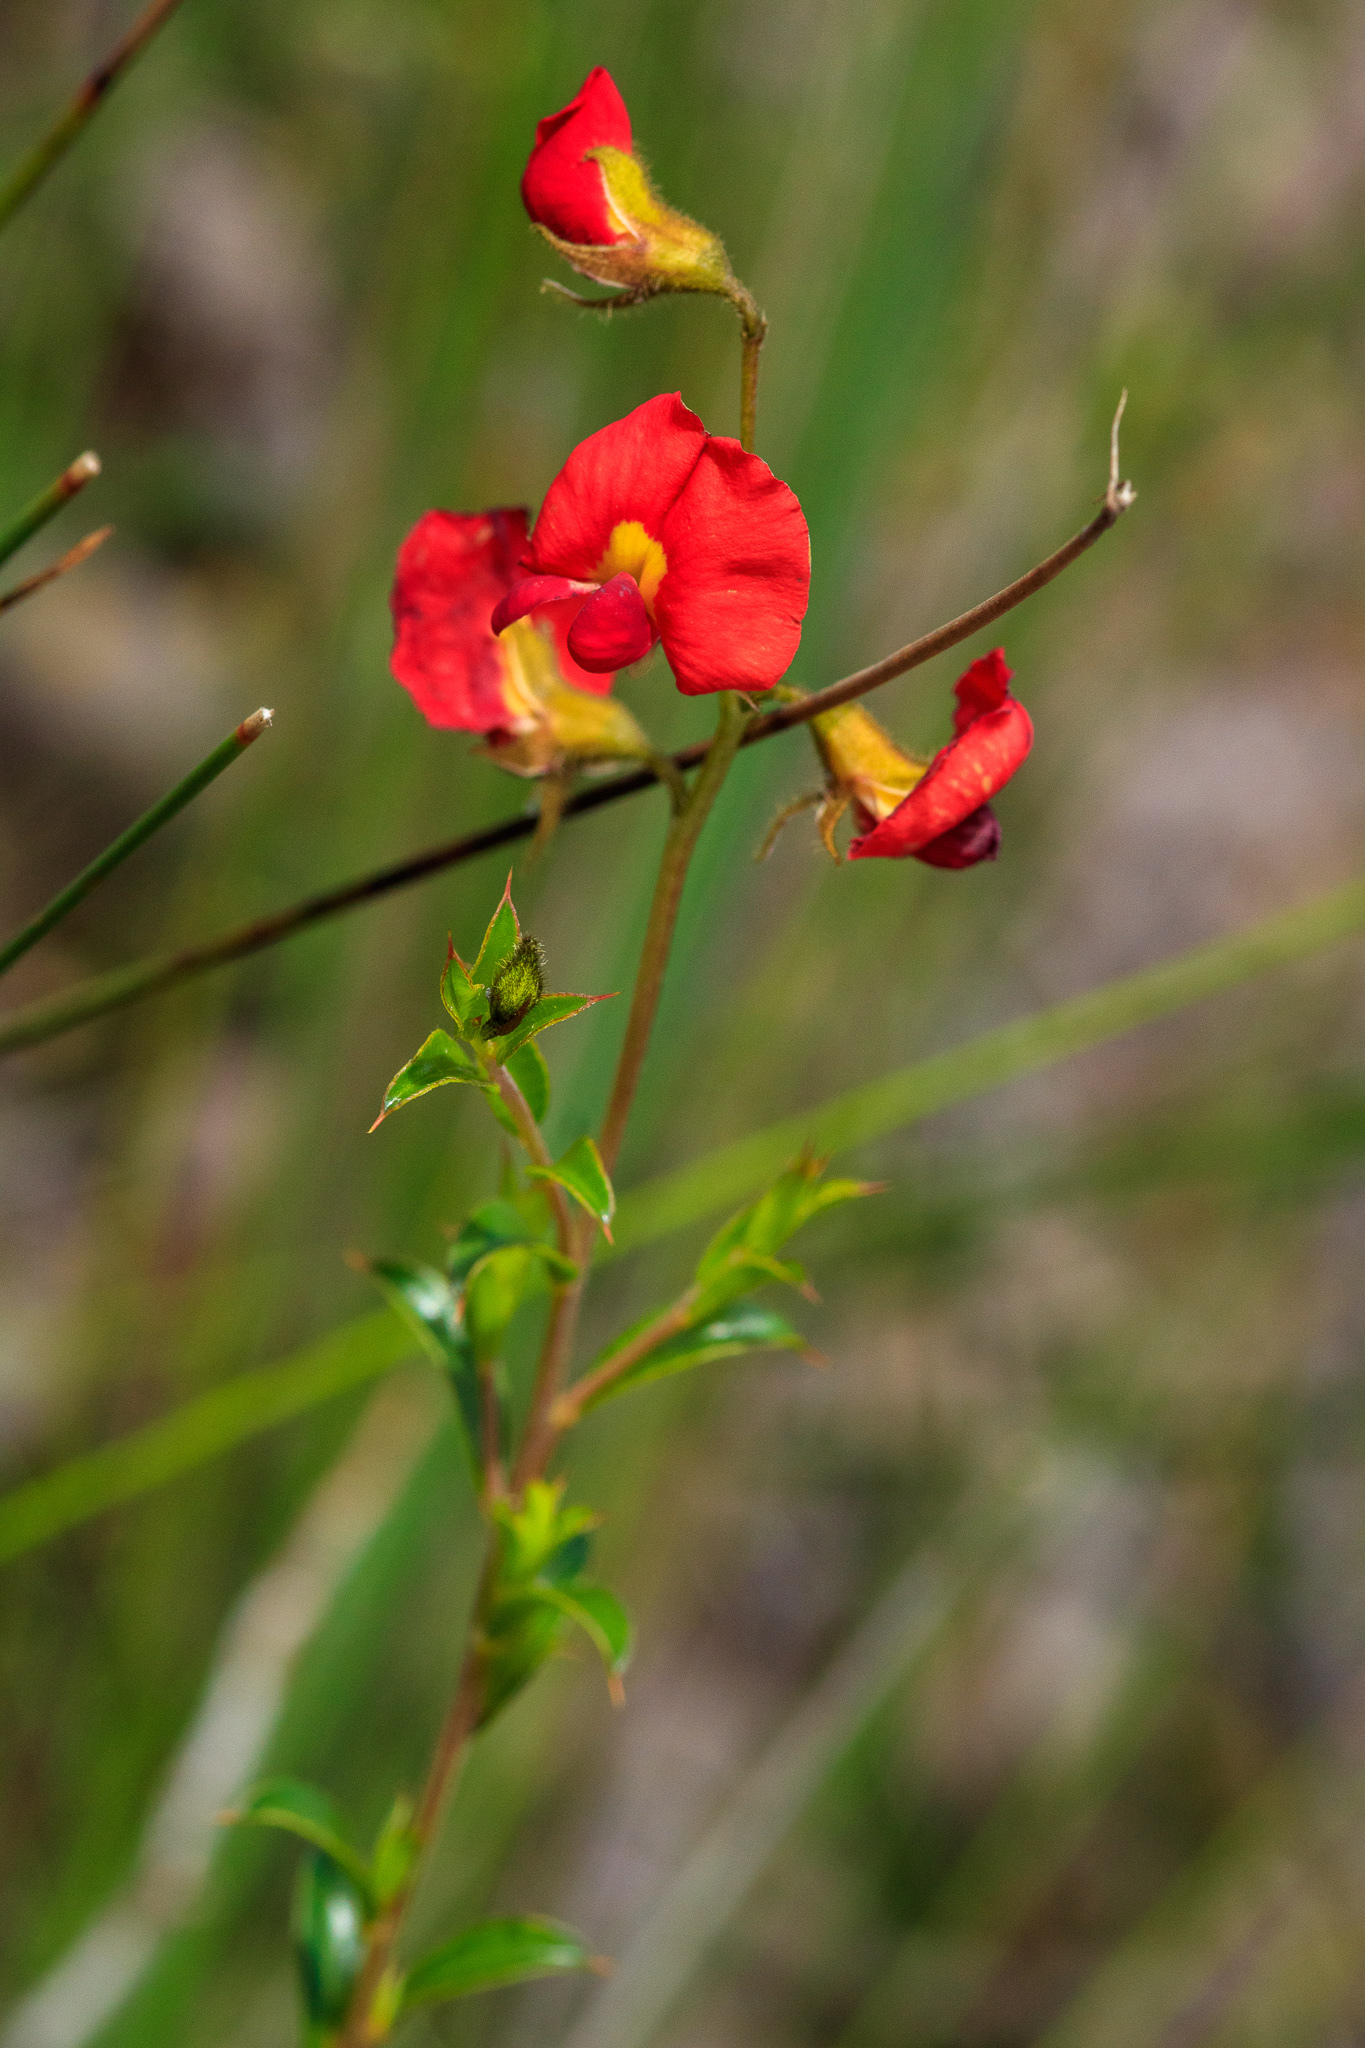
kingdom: Plantae
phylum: Tracheophyta
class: Magnoliopsida
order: Fabales
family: Fabaceae
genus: Chorizema
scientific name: Chorizema dicksonii
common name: Yellow-eyed flame-pea
